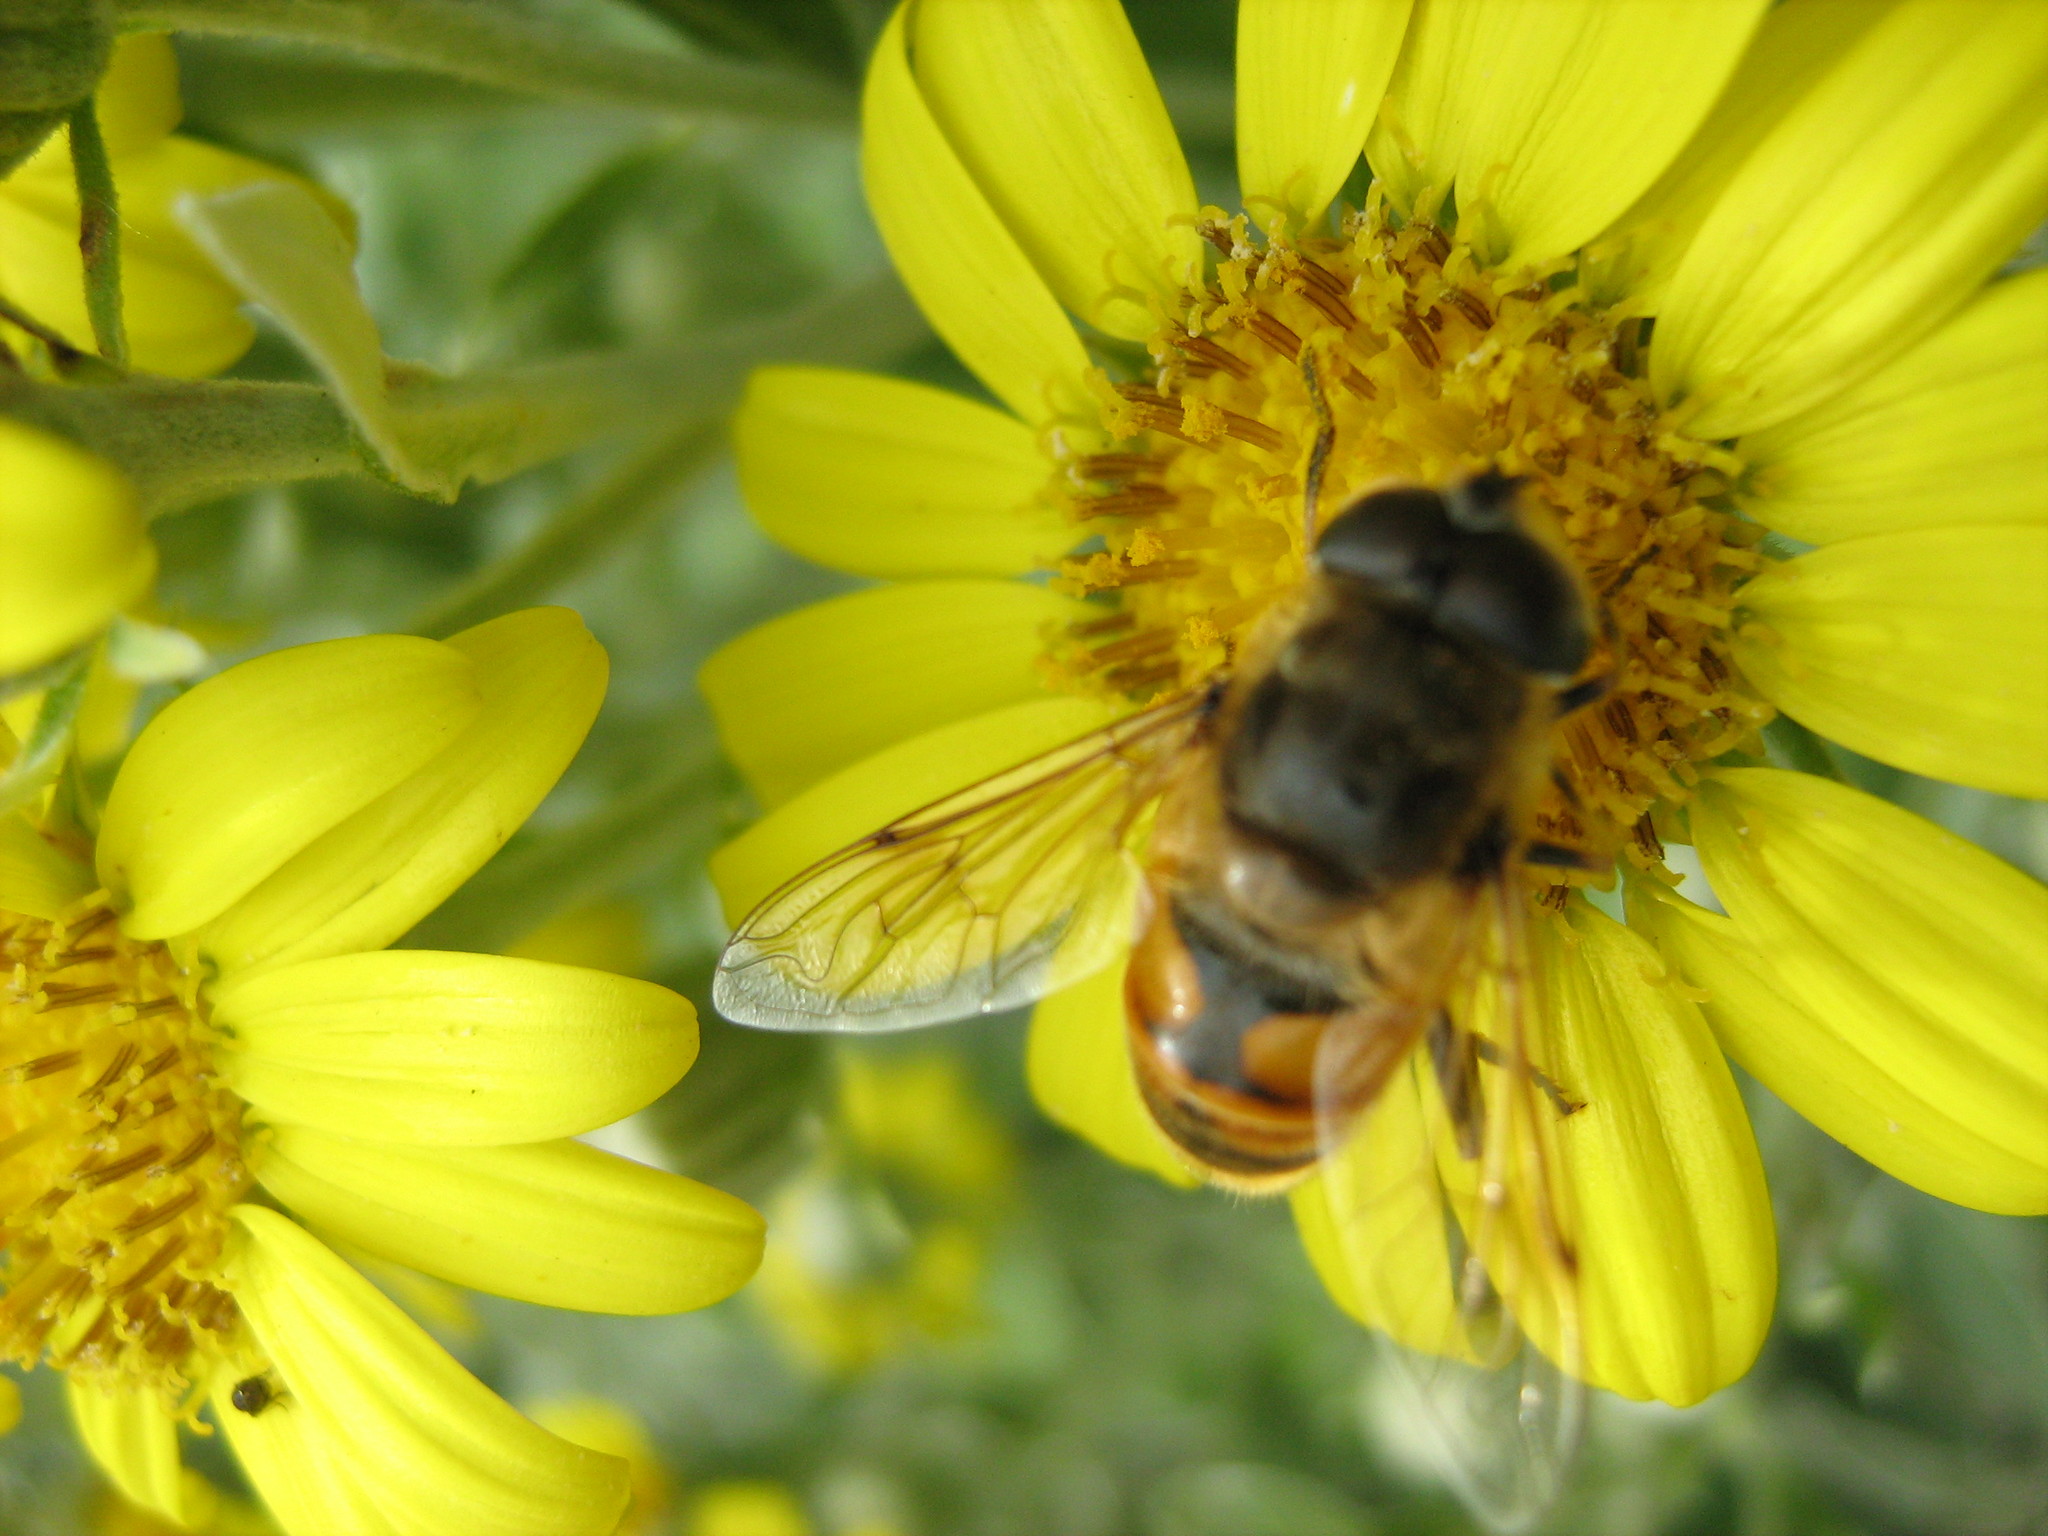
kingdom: Animalia
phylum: Arthropoda
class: Insecta
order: Diptera
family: Syrphidae
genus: Eristalis
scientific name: Eristalis tenax
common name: Drone fly
